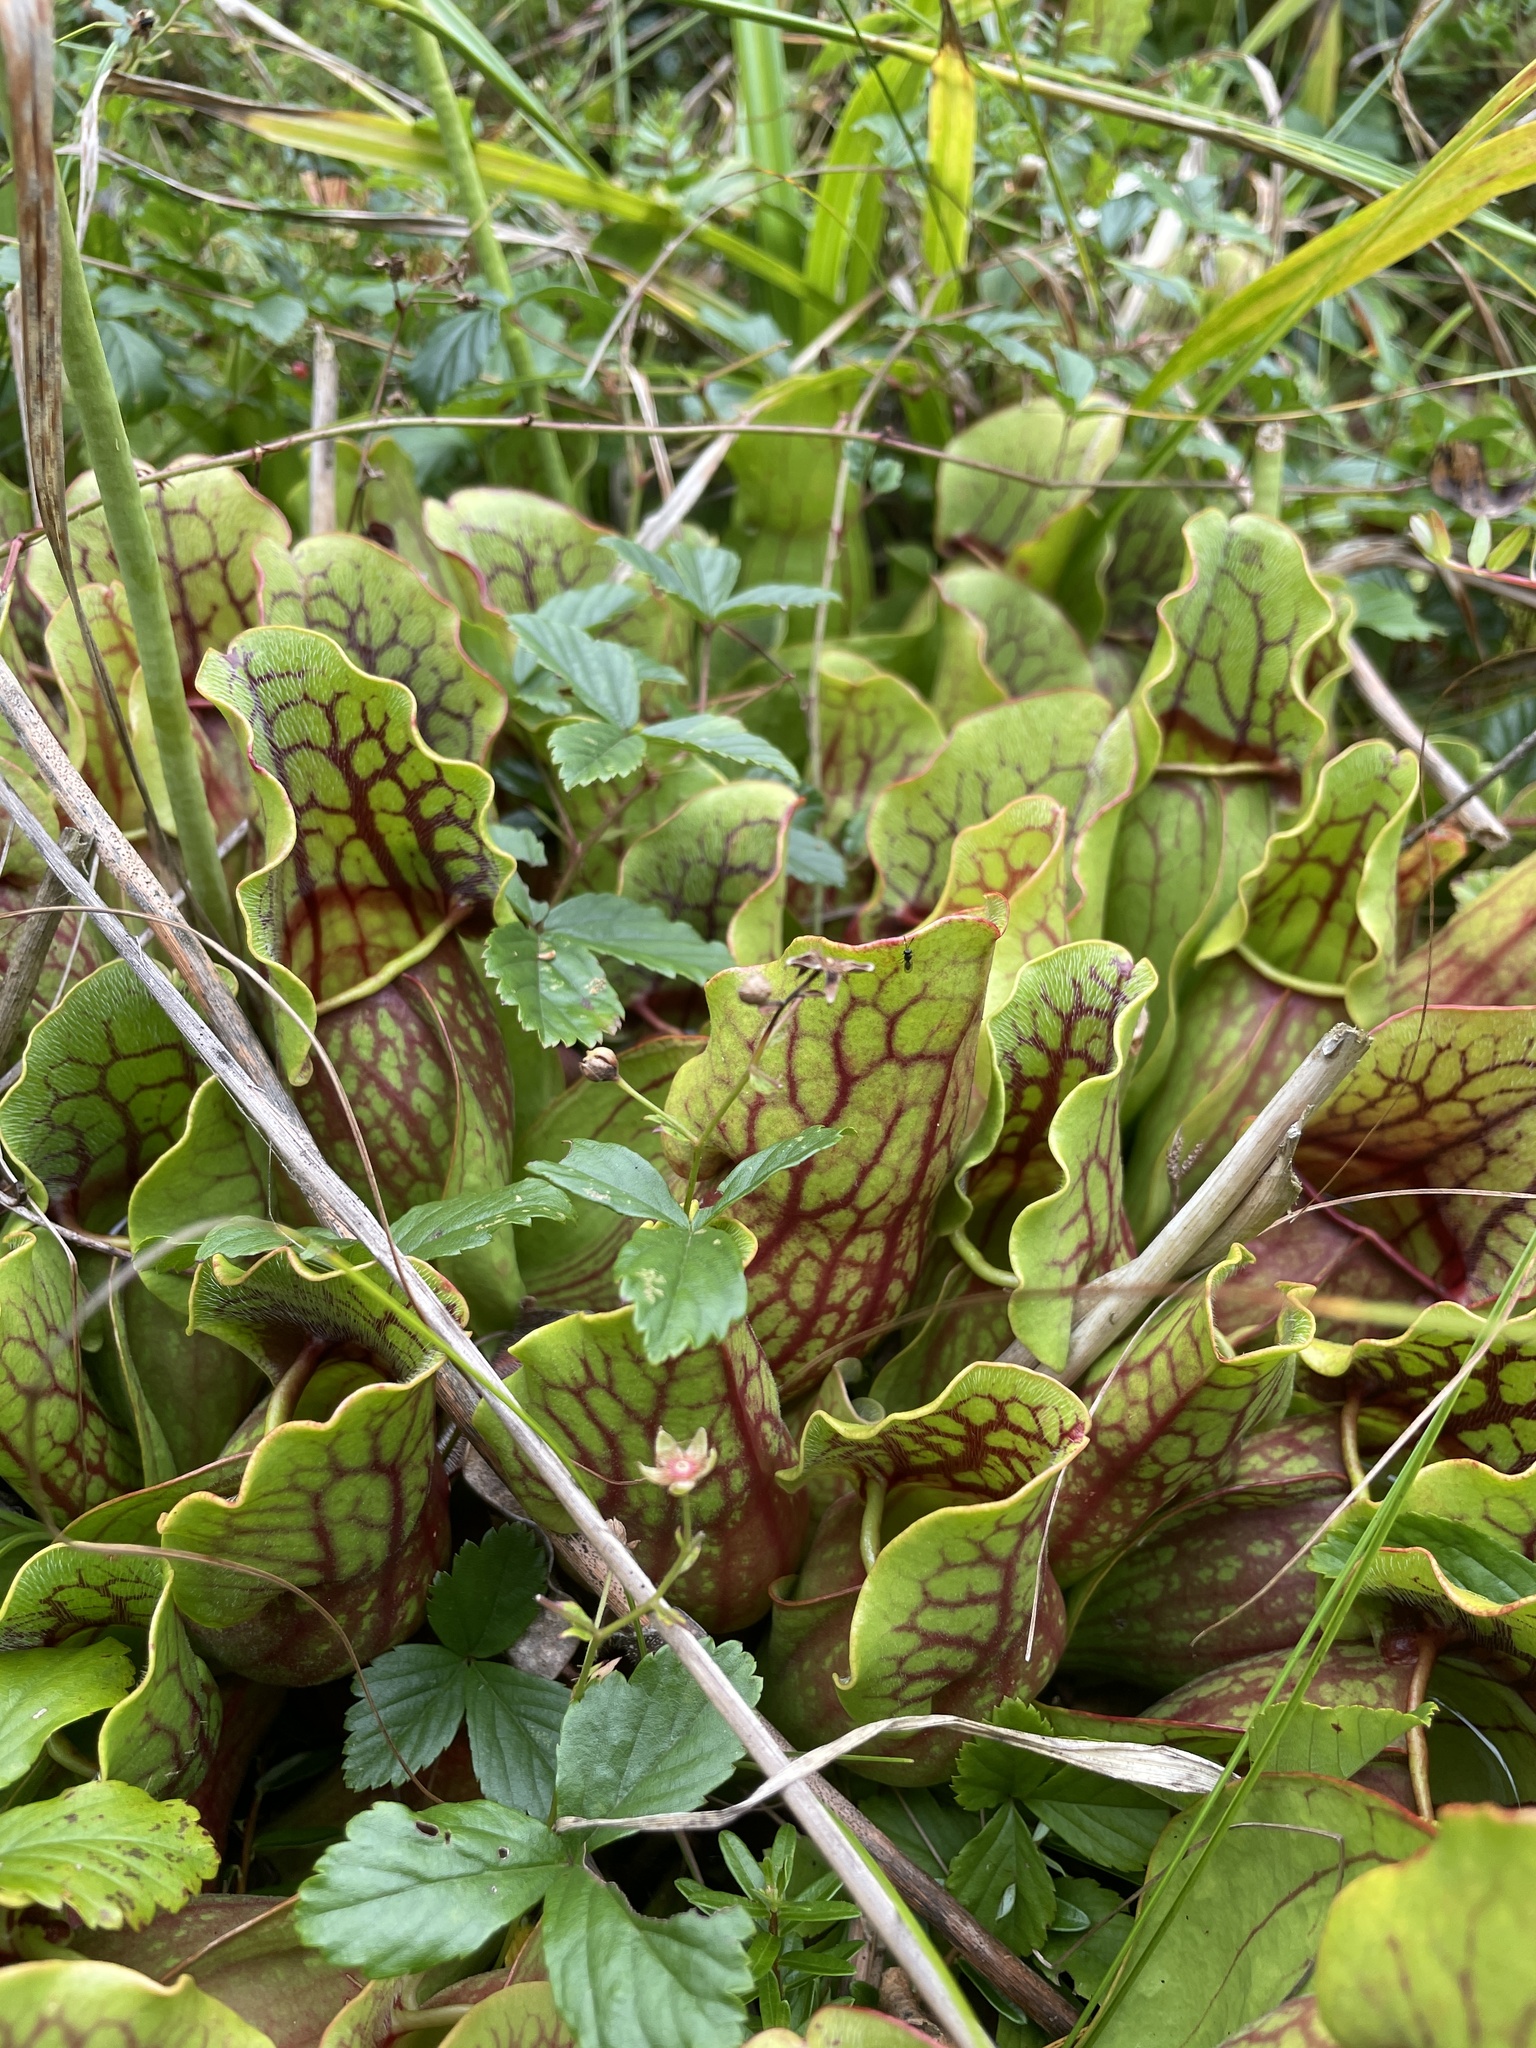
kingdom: Plantae
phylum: Tracheophyta
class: Magnoliopsida
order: Ericales
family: Sarraceniaceae
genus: Sarracenia
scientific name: Sarracenia purpurea
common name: Pitcherplant
